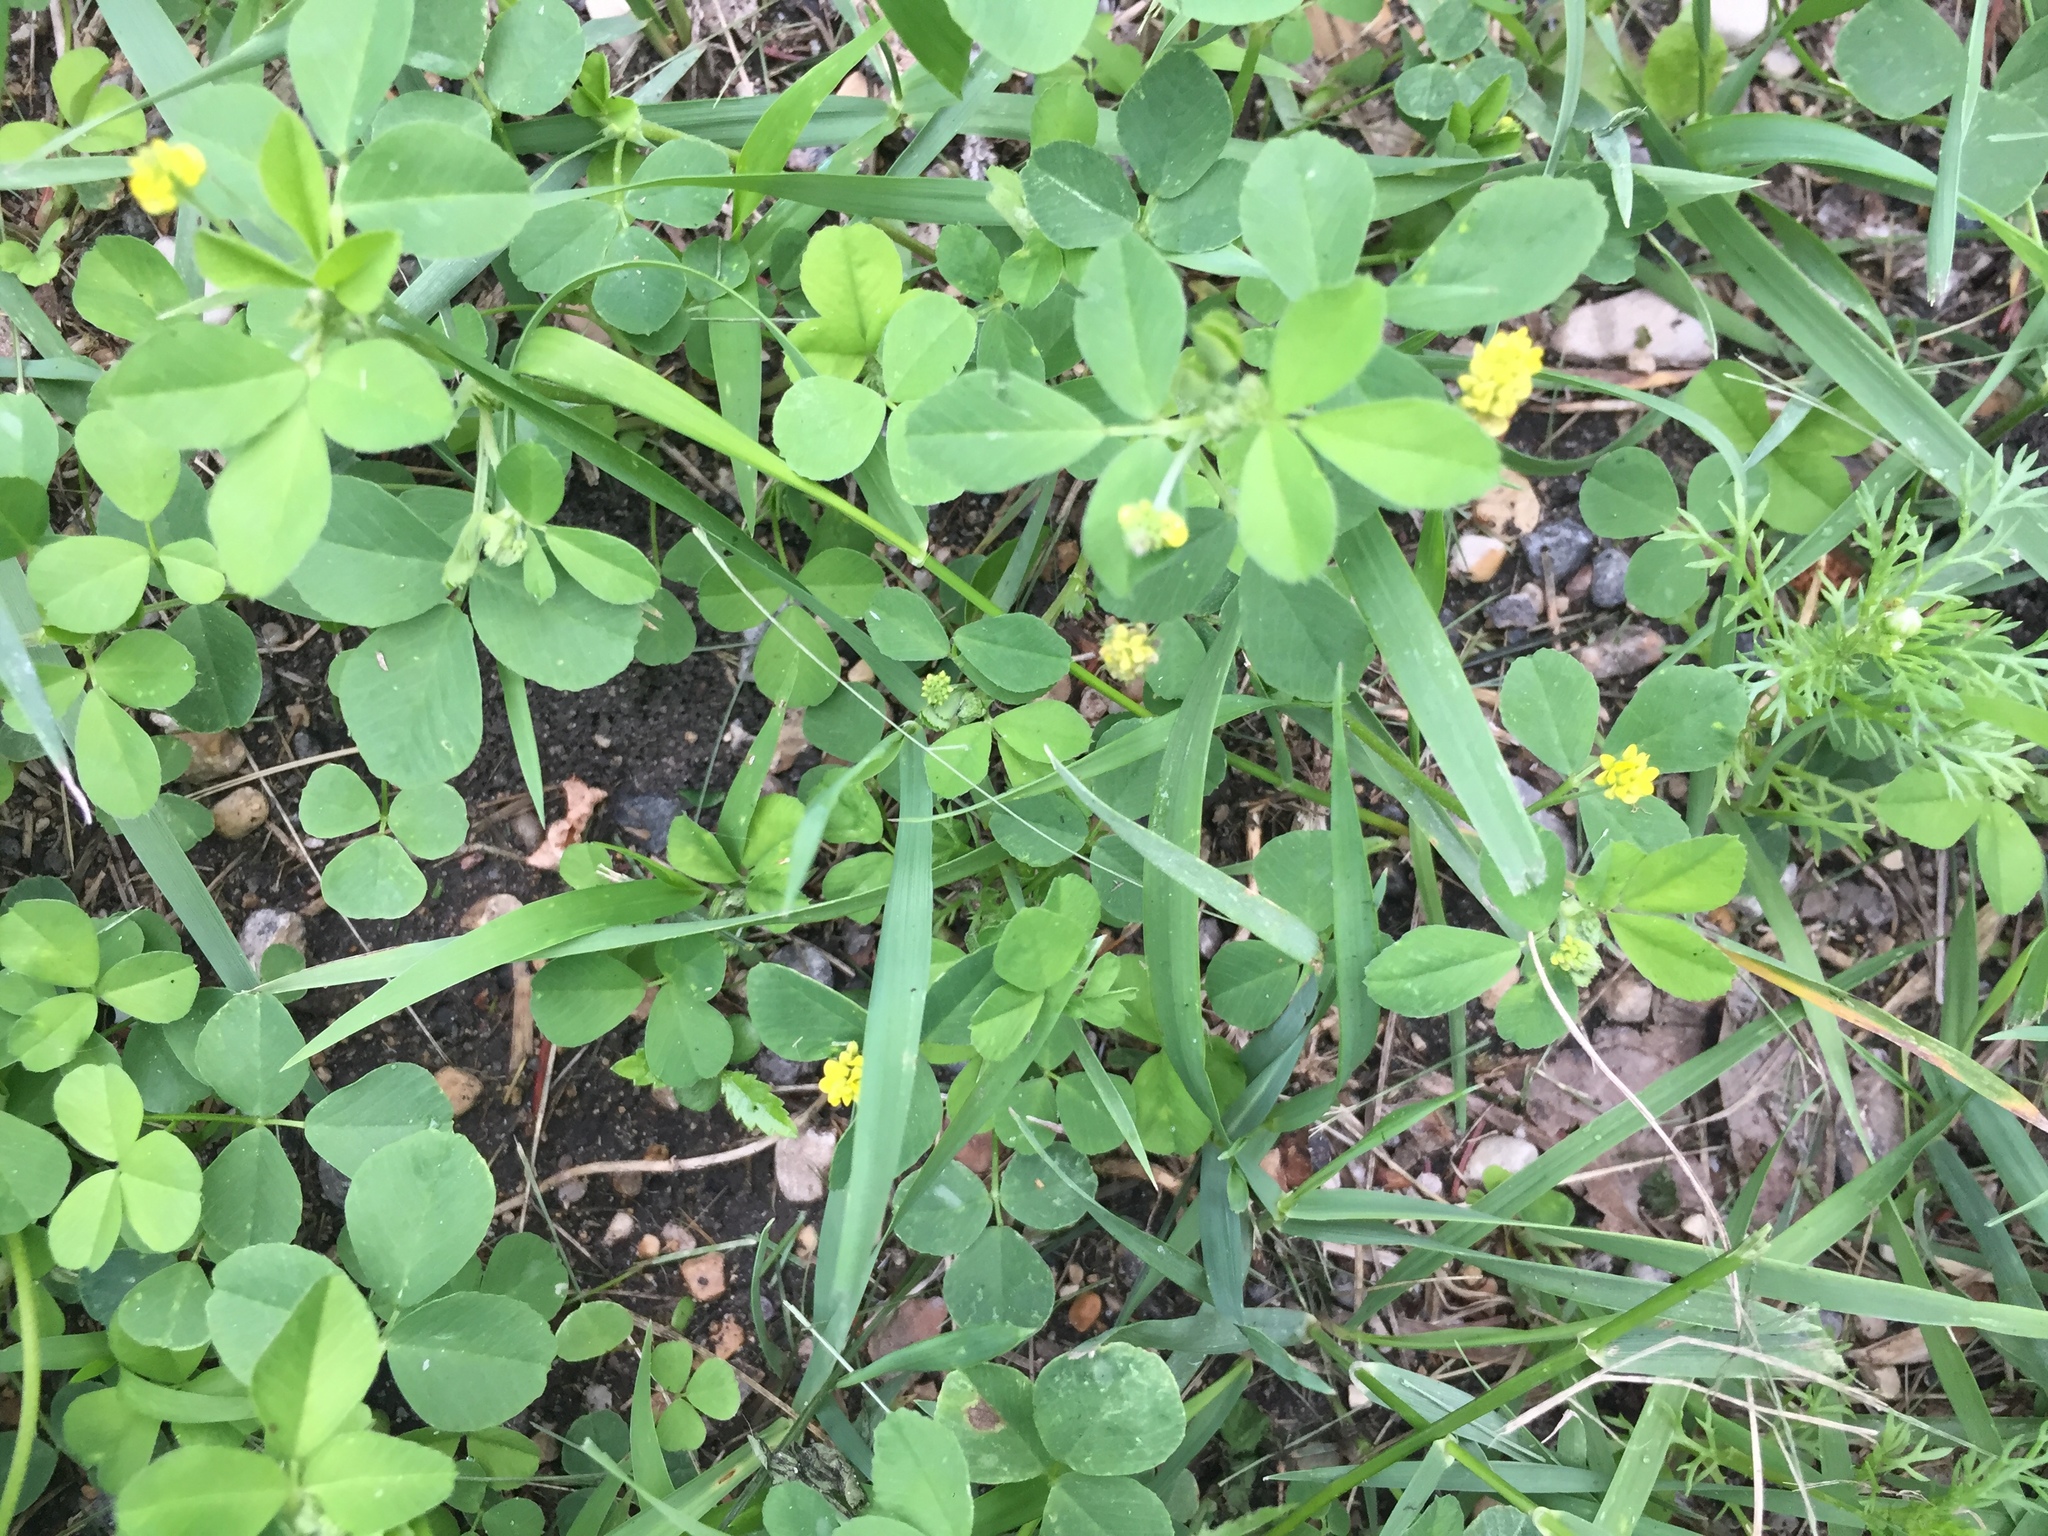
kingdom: Plantae
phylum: Tracheophyta
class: Magnoliopsida
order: Fabales
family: Fabaceae
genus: Medicago
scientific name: Medicago lupulina
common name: Black medick
